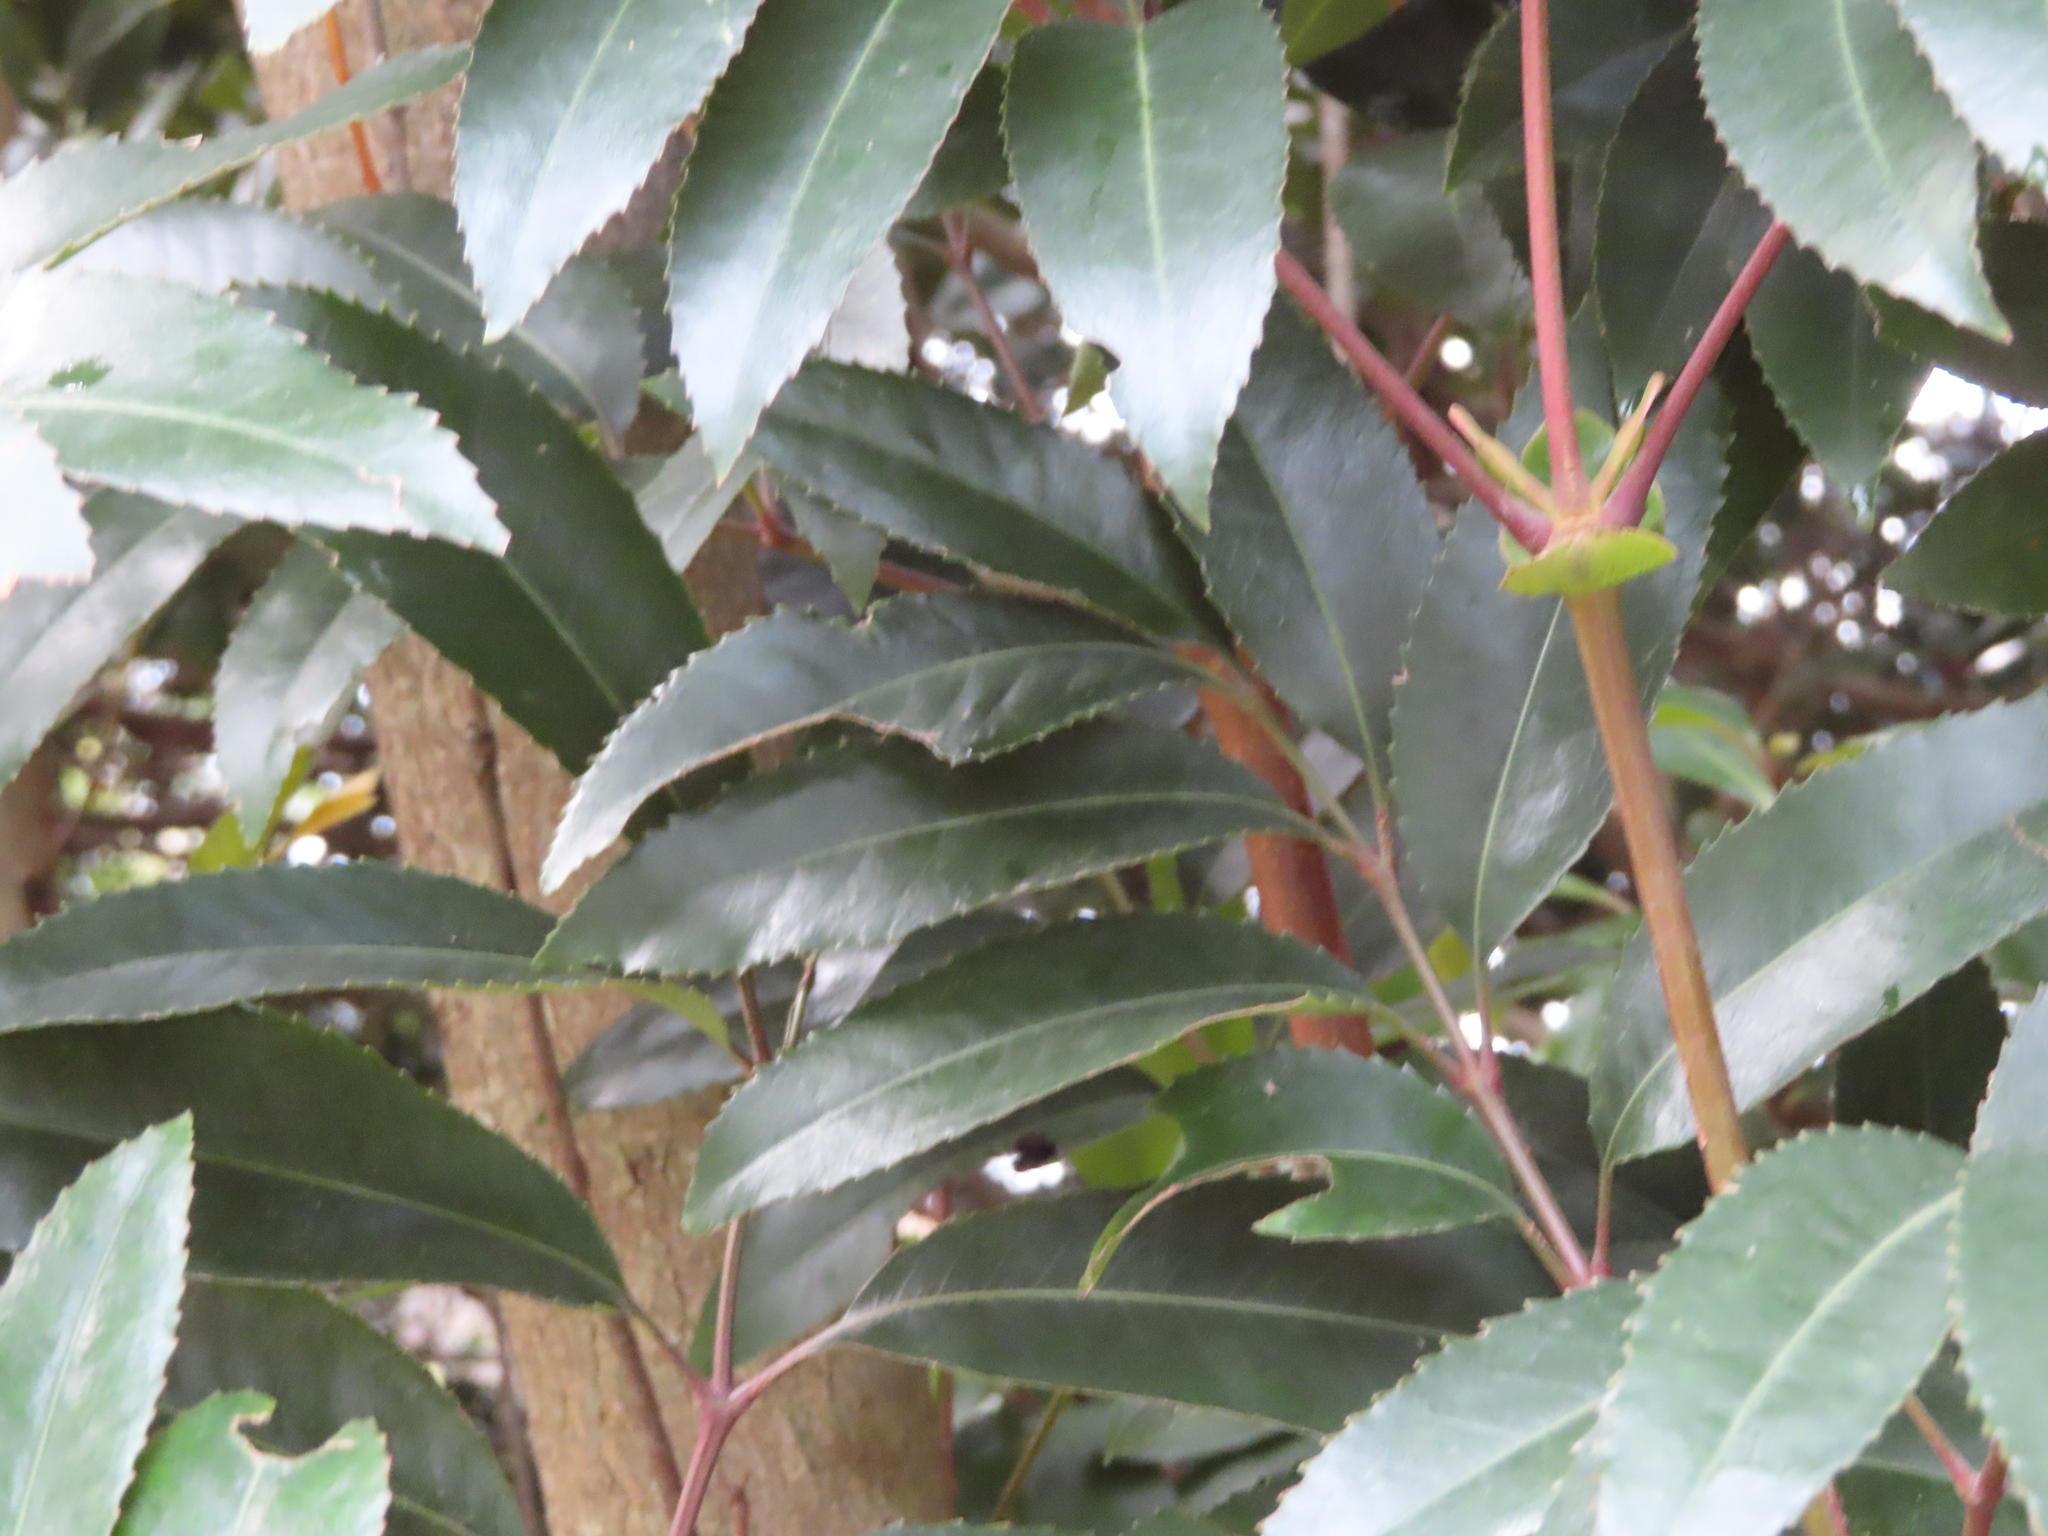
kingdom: Plantae
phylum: Tracheophyta
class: Magnoliopsida
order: Oxalidales
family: Cunoniaceae
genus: Cunonia
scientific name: Cunonia capensis
